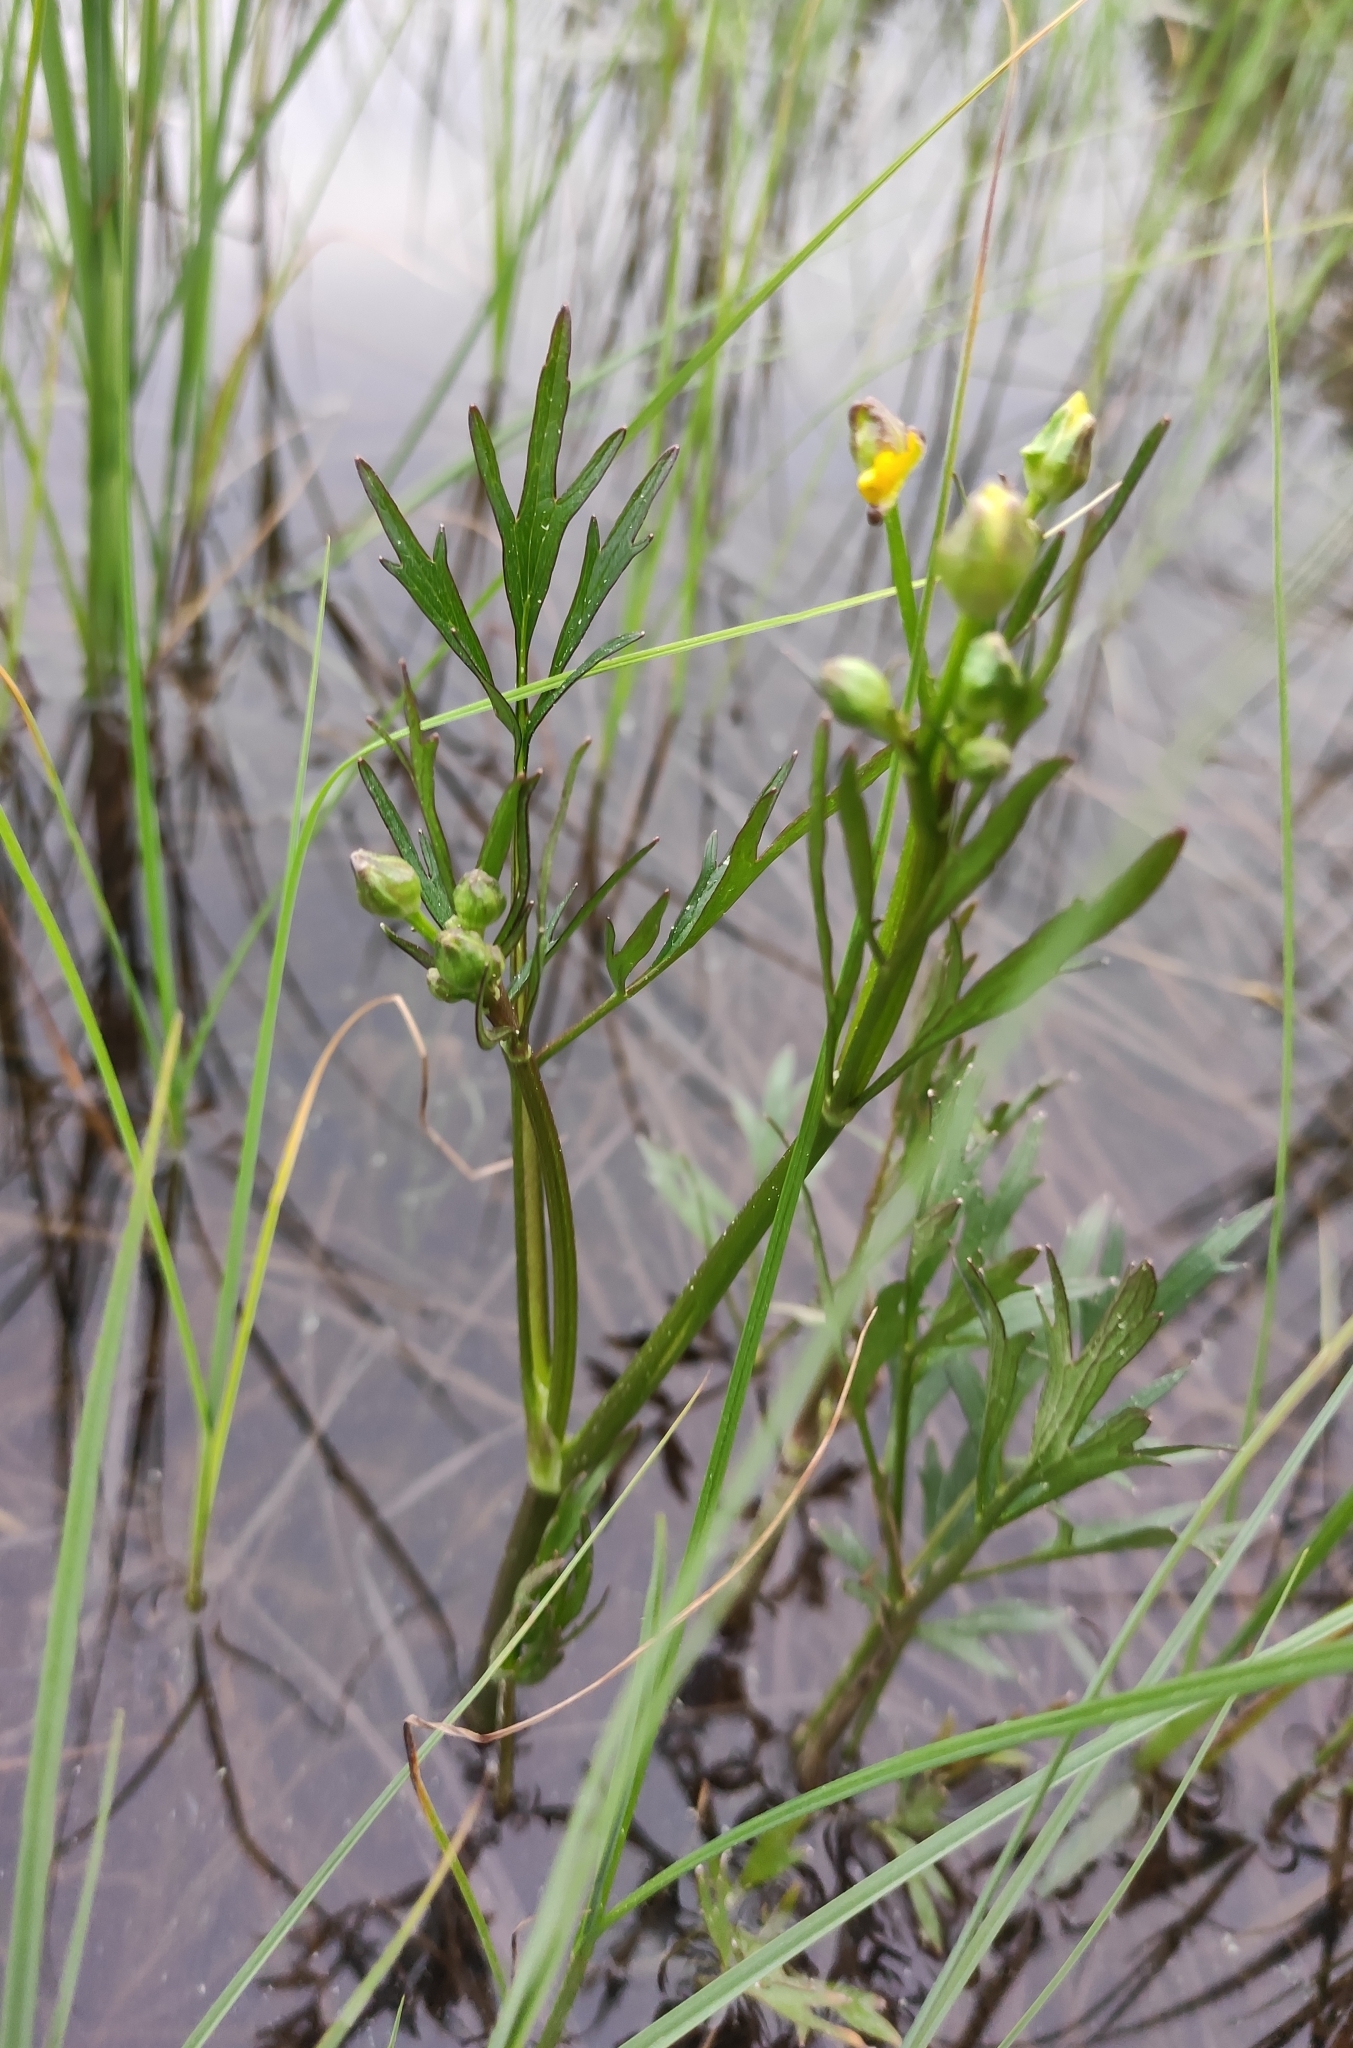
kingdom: Plantae
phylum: Tracheophyta
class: Magnoliopsida
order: Ranunculales
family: Ranunculaceae
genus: Ranunculus
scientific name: Ranunculus repens
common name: Creeping buttercup
